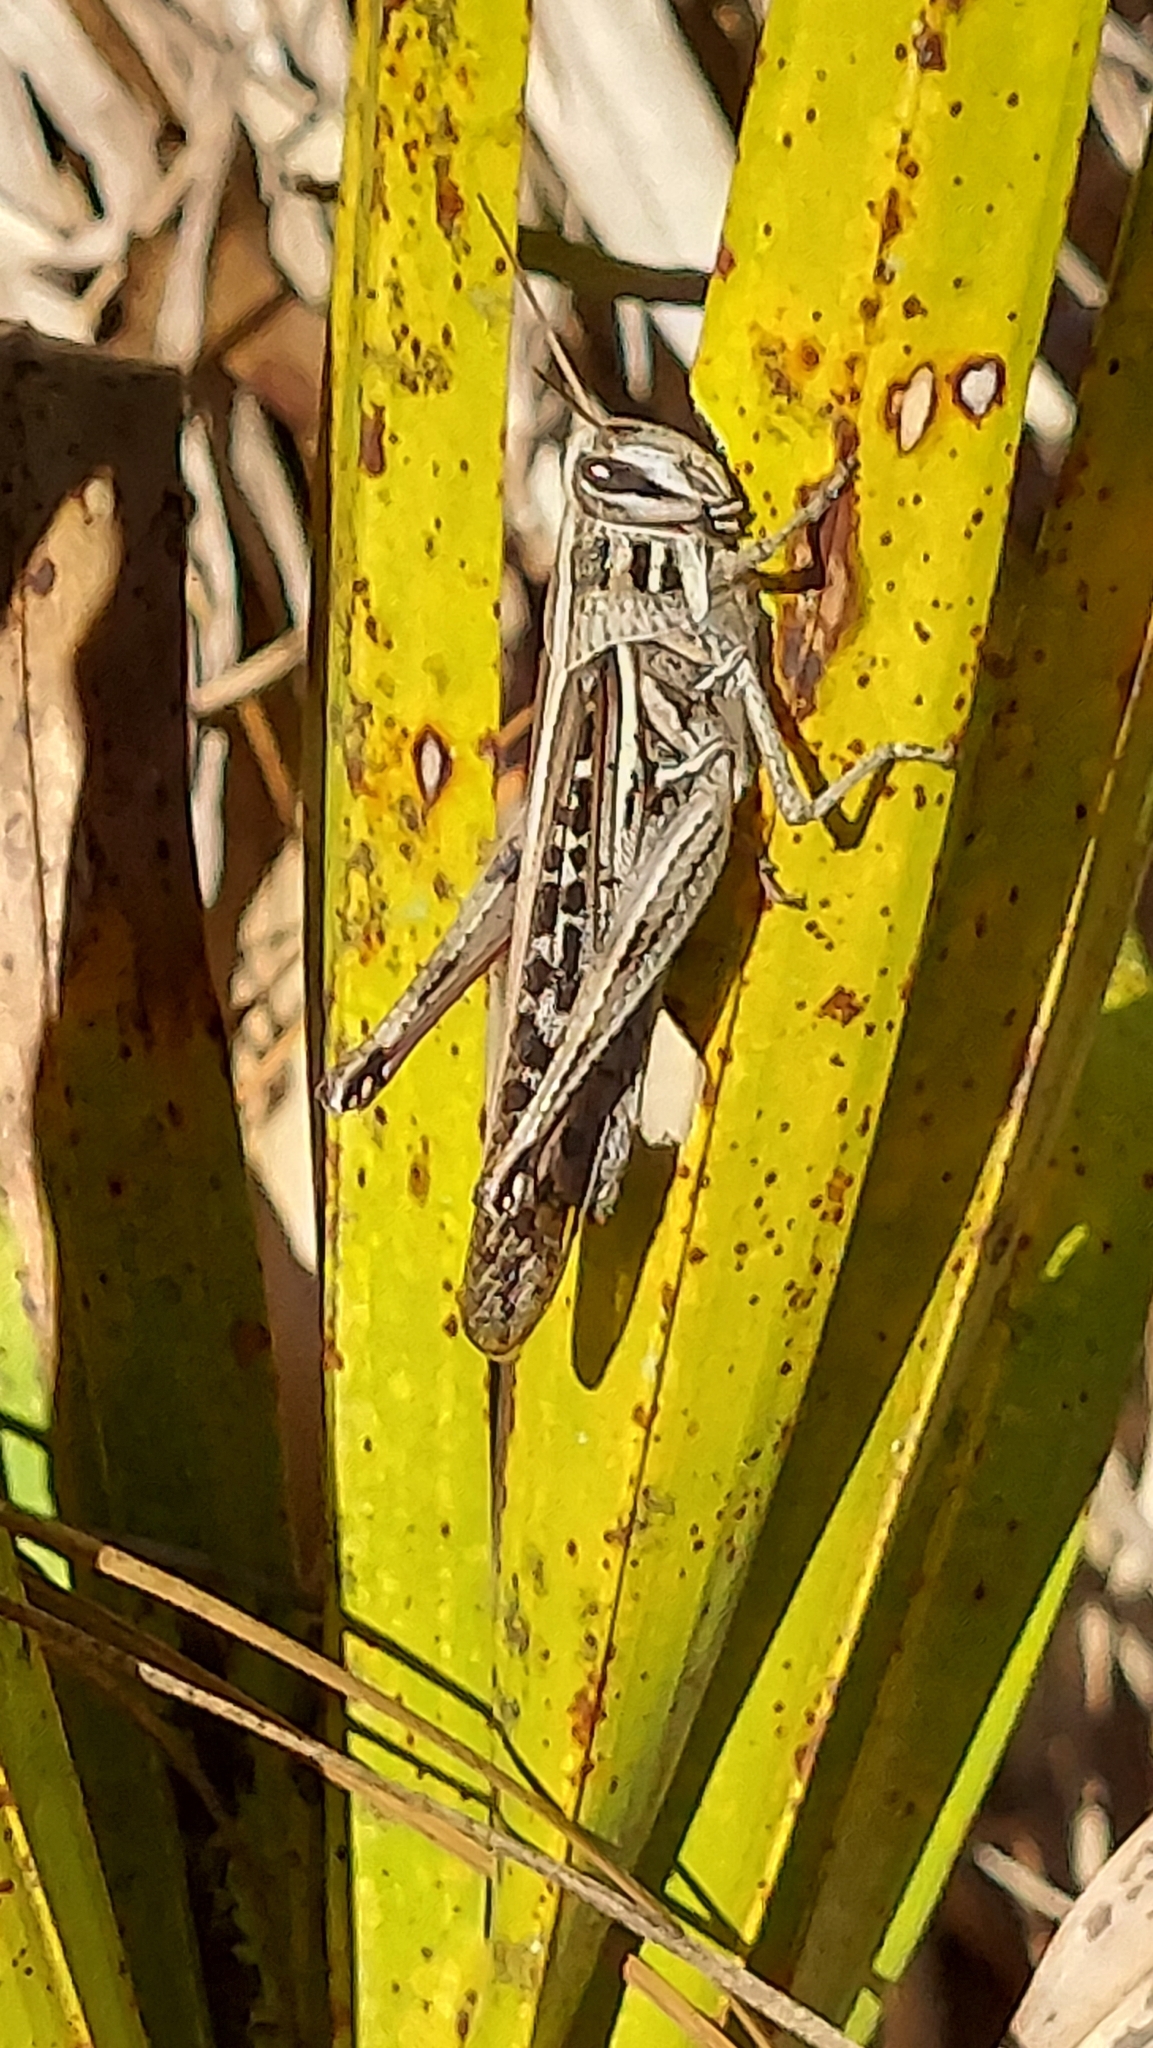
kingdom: Animalia
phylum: Arthropoda
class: Insecta
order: Orthoptera
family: Acrididae
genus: Schistocerca
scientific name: Schistocerca serialis
